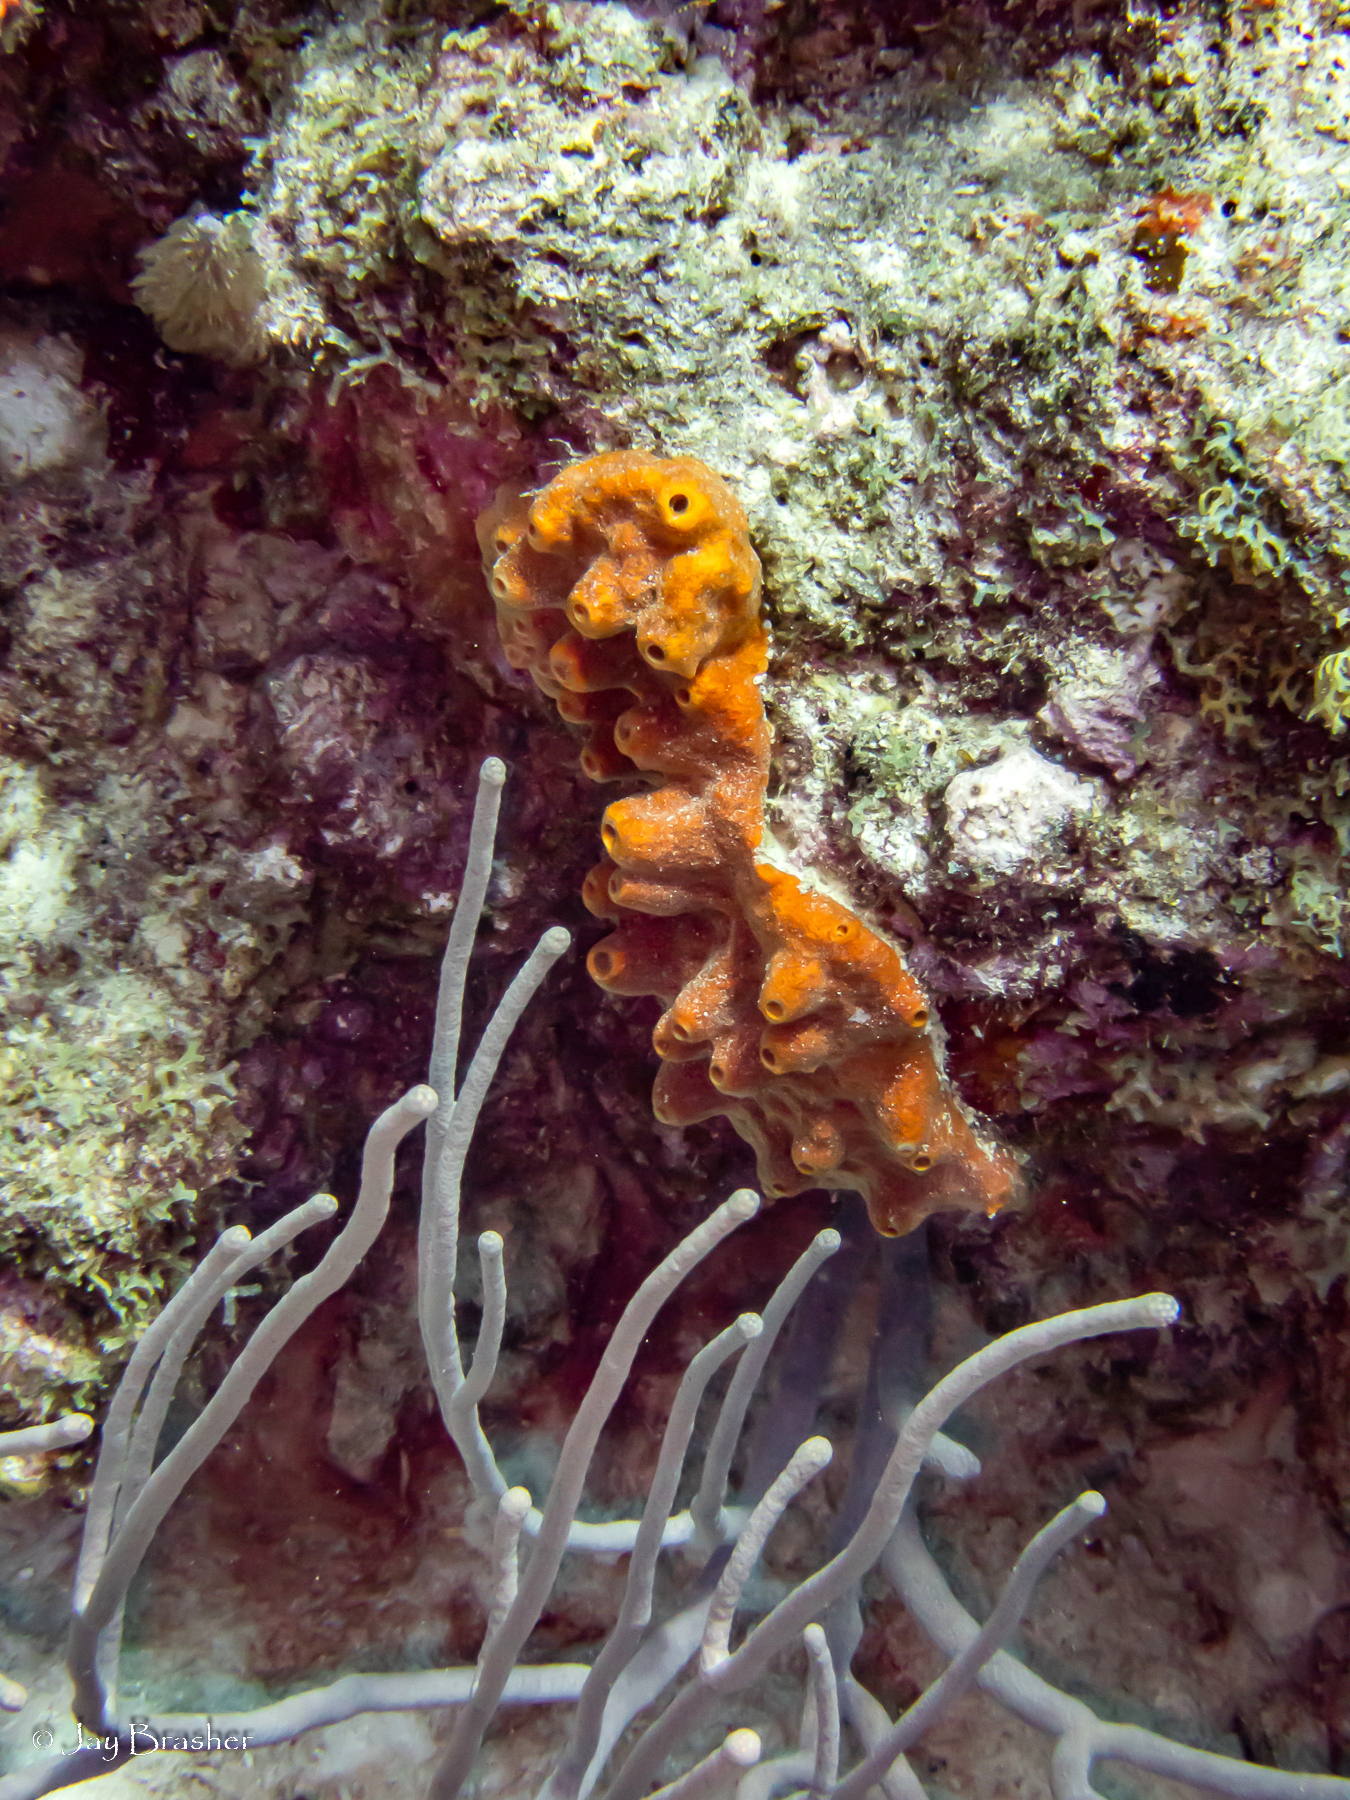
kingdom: Animalia
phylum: Porifera
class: Demospongiae
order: Axinellida
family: Raspailiidae
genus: Ectyoplasia
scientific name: Ectyoplasia ferox
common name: Brown encrusting octopus sponge
